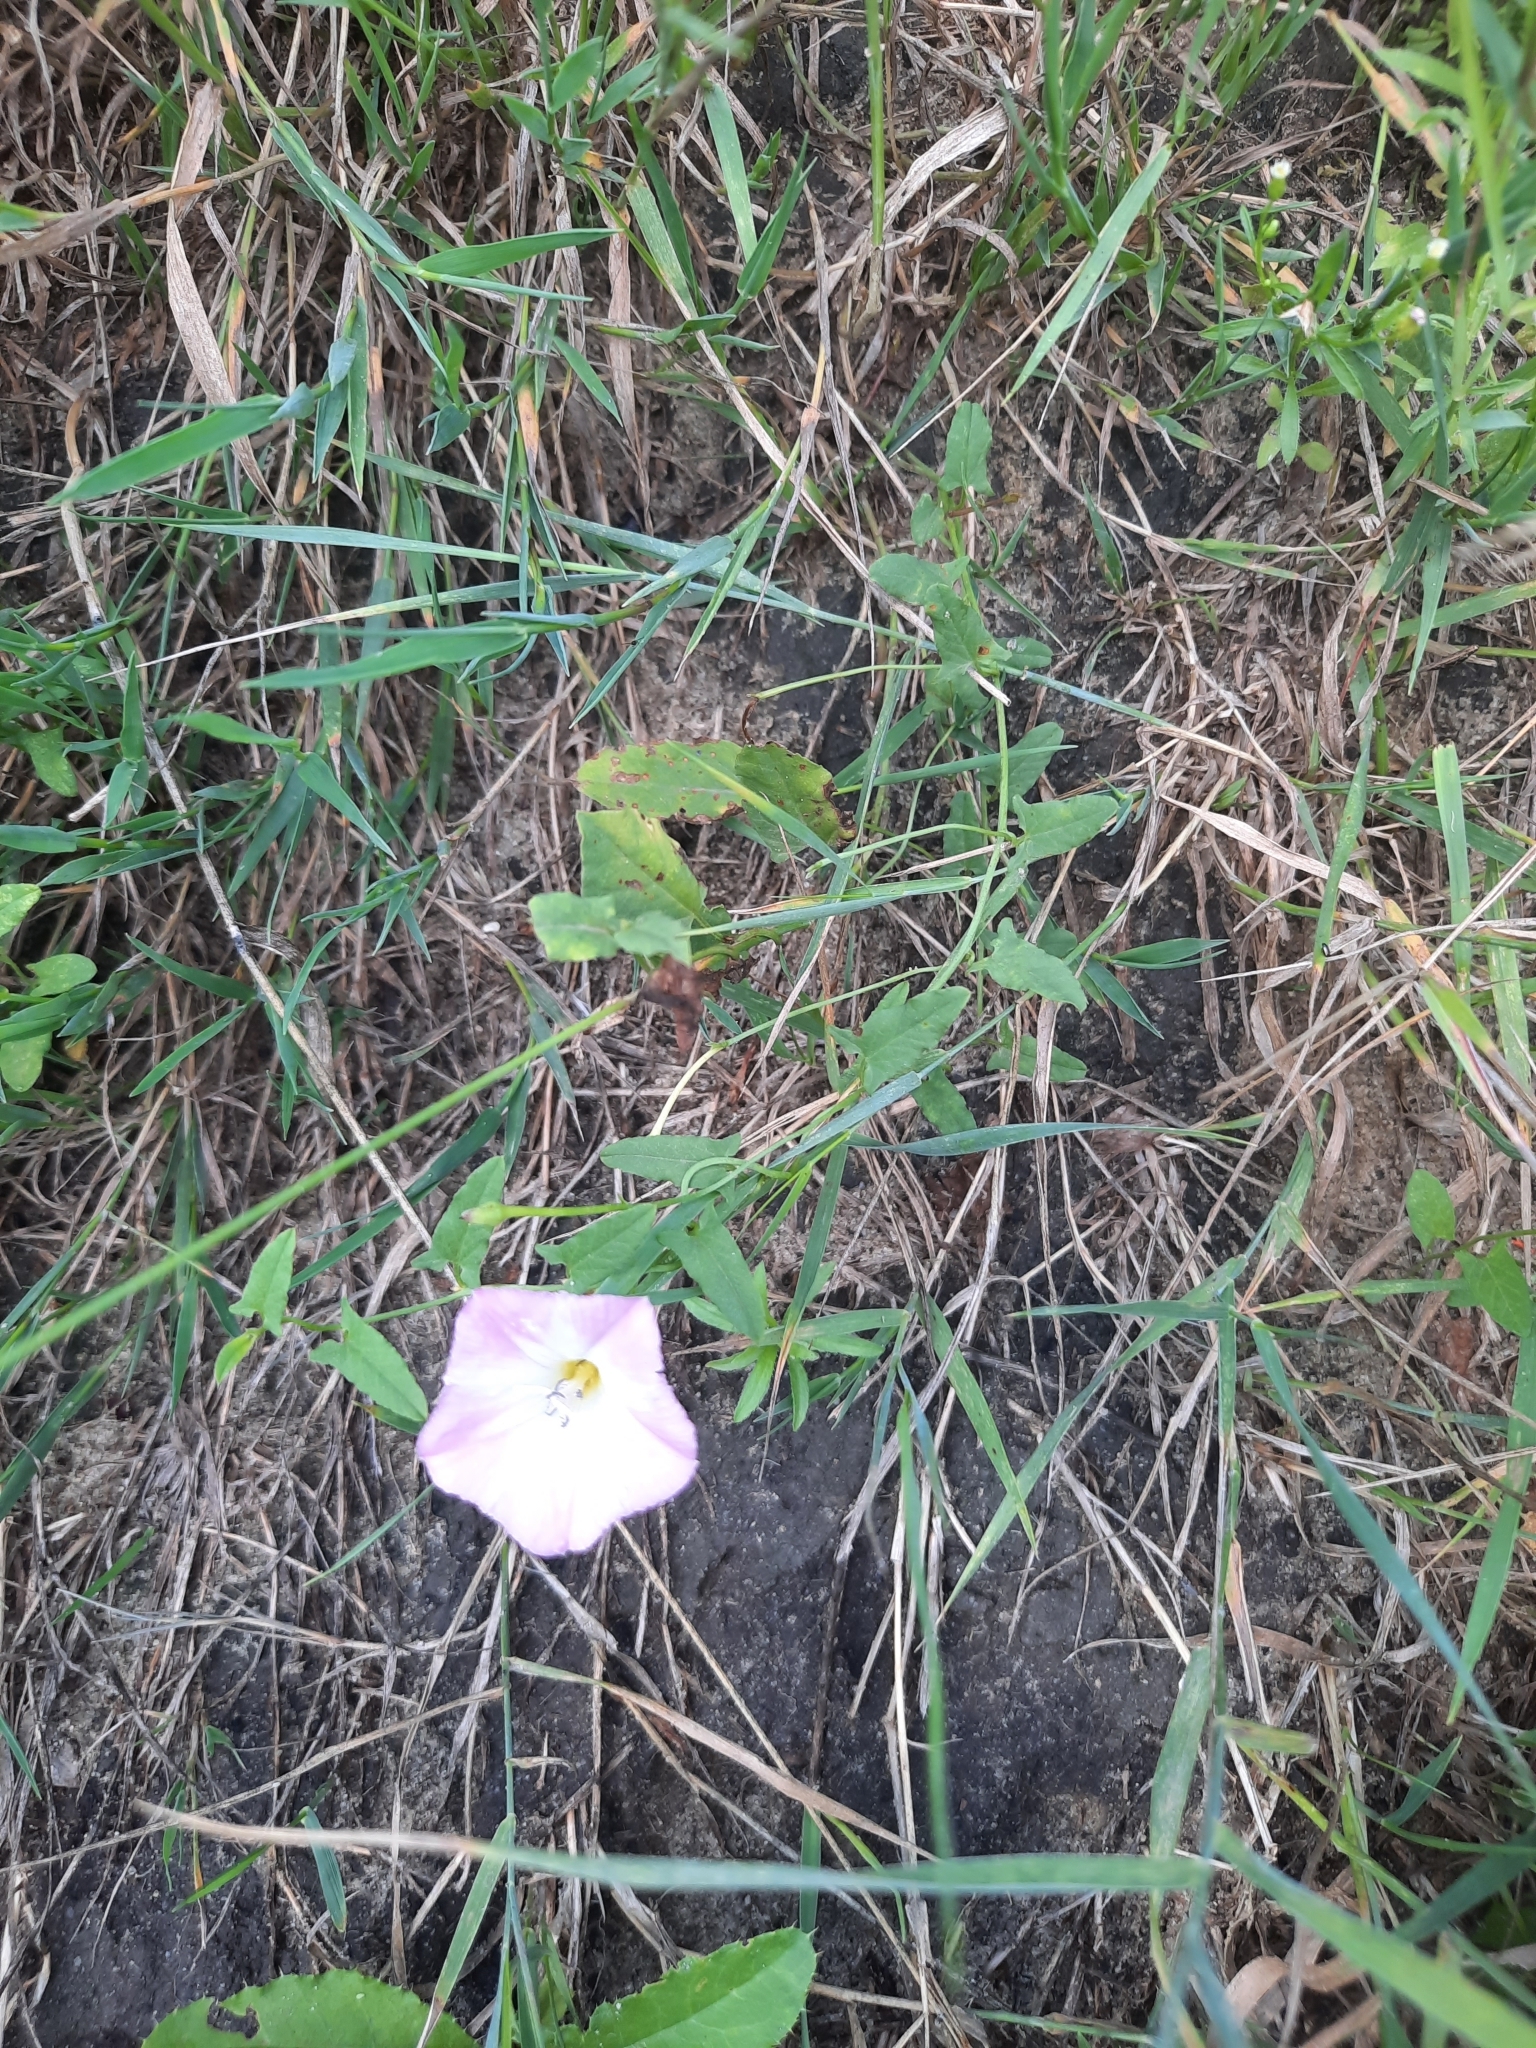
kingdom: Plantae
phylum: Tracheophyta
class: Magnoliopsida
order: Solanales
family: Convolvulaceae
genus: Convolvulus
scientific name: Convolvulus arvensis
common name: Field bindweed
